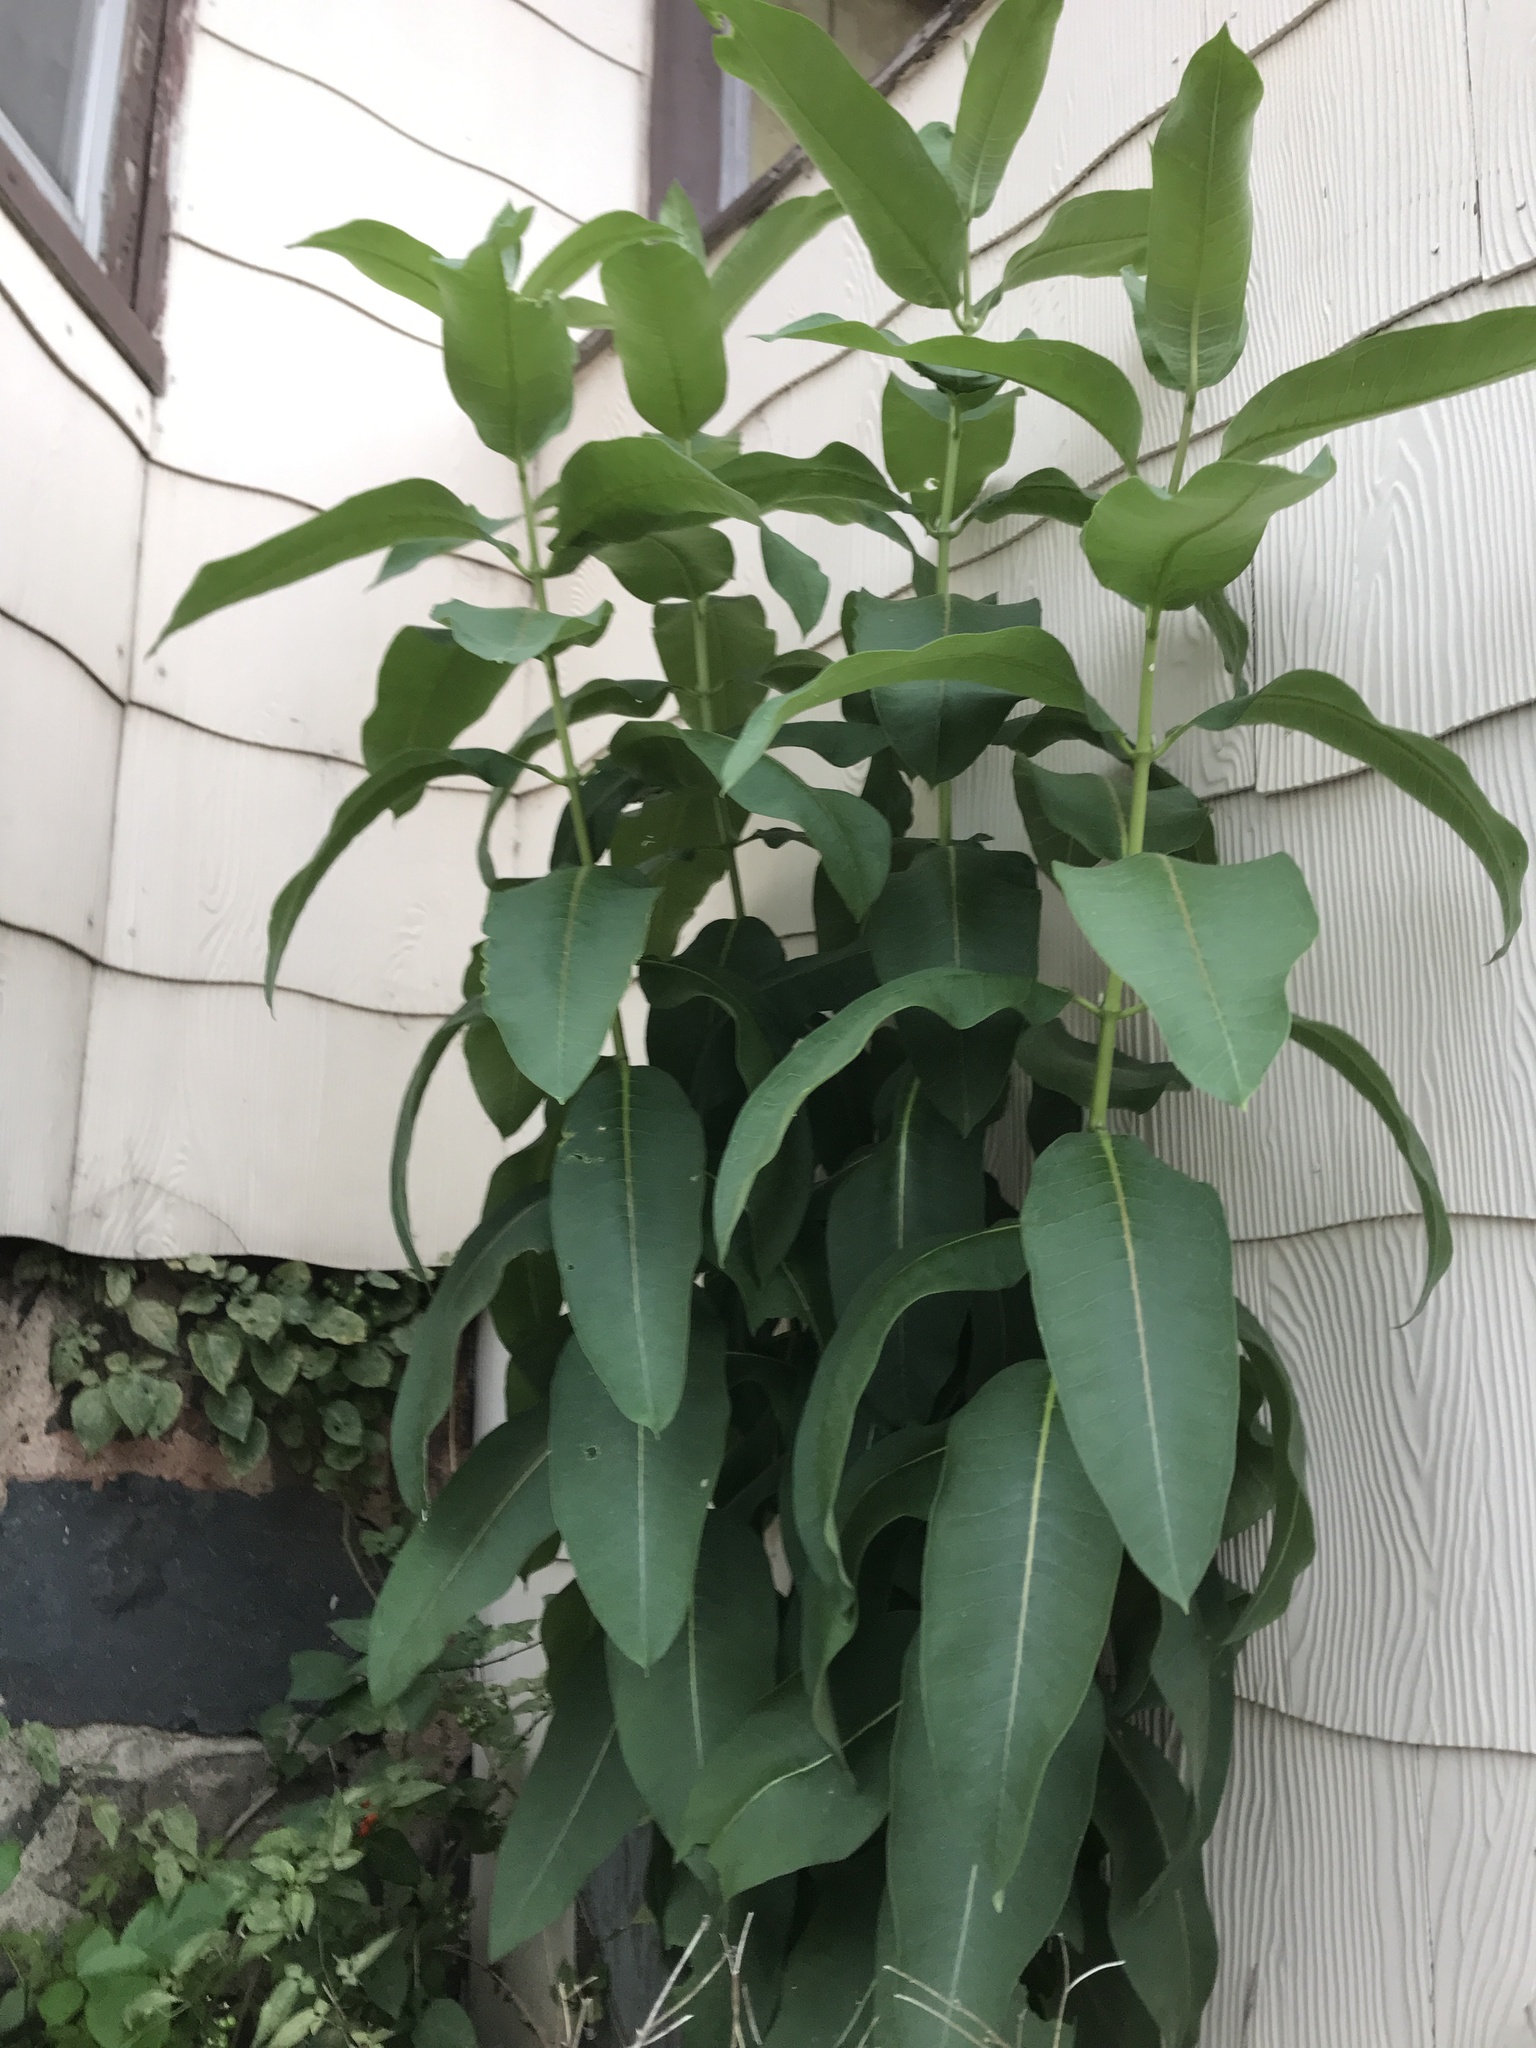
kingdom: Plantae
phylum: Tracheophyta
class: Magnoliopsida
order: Gentianales
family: Apocynaceae
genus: Asclepias
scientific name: Asclepias syriaca
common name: Common milkweed
